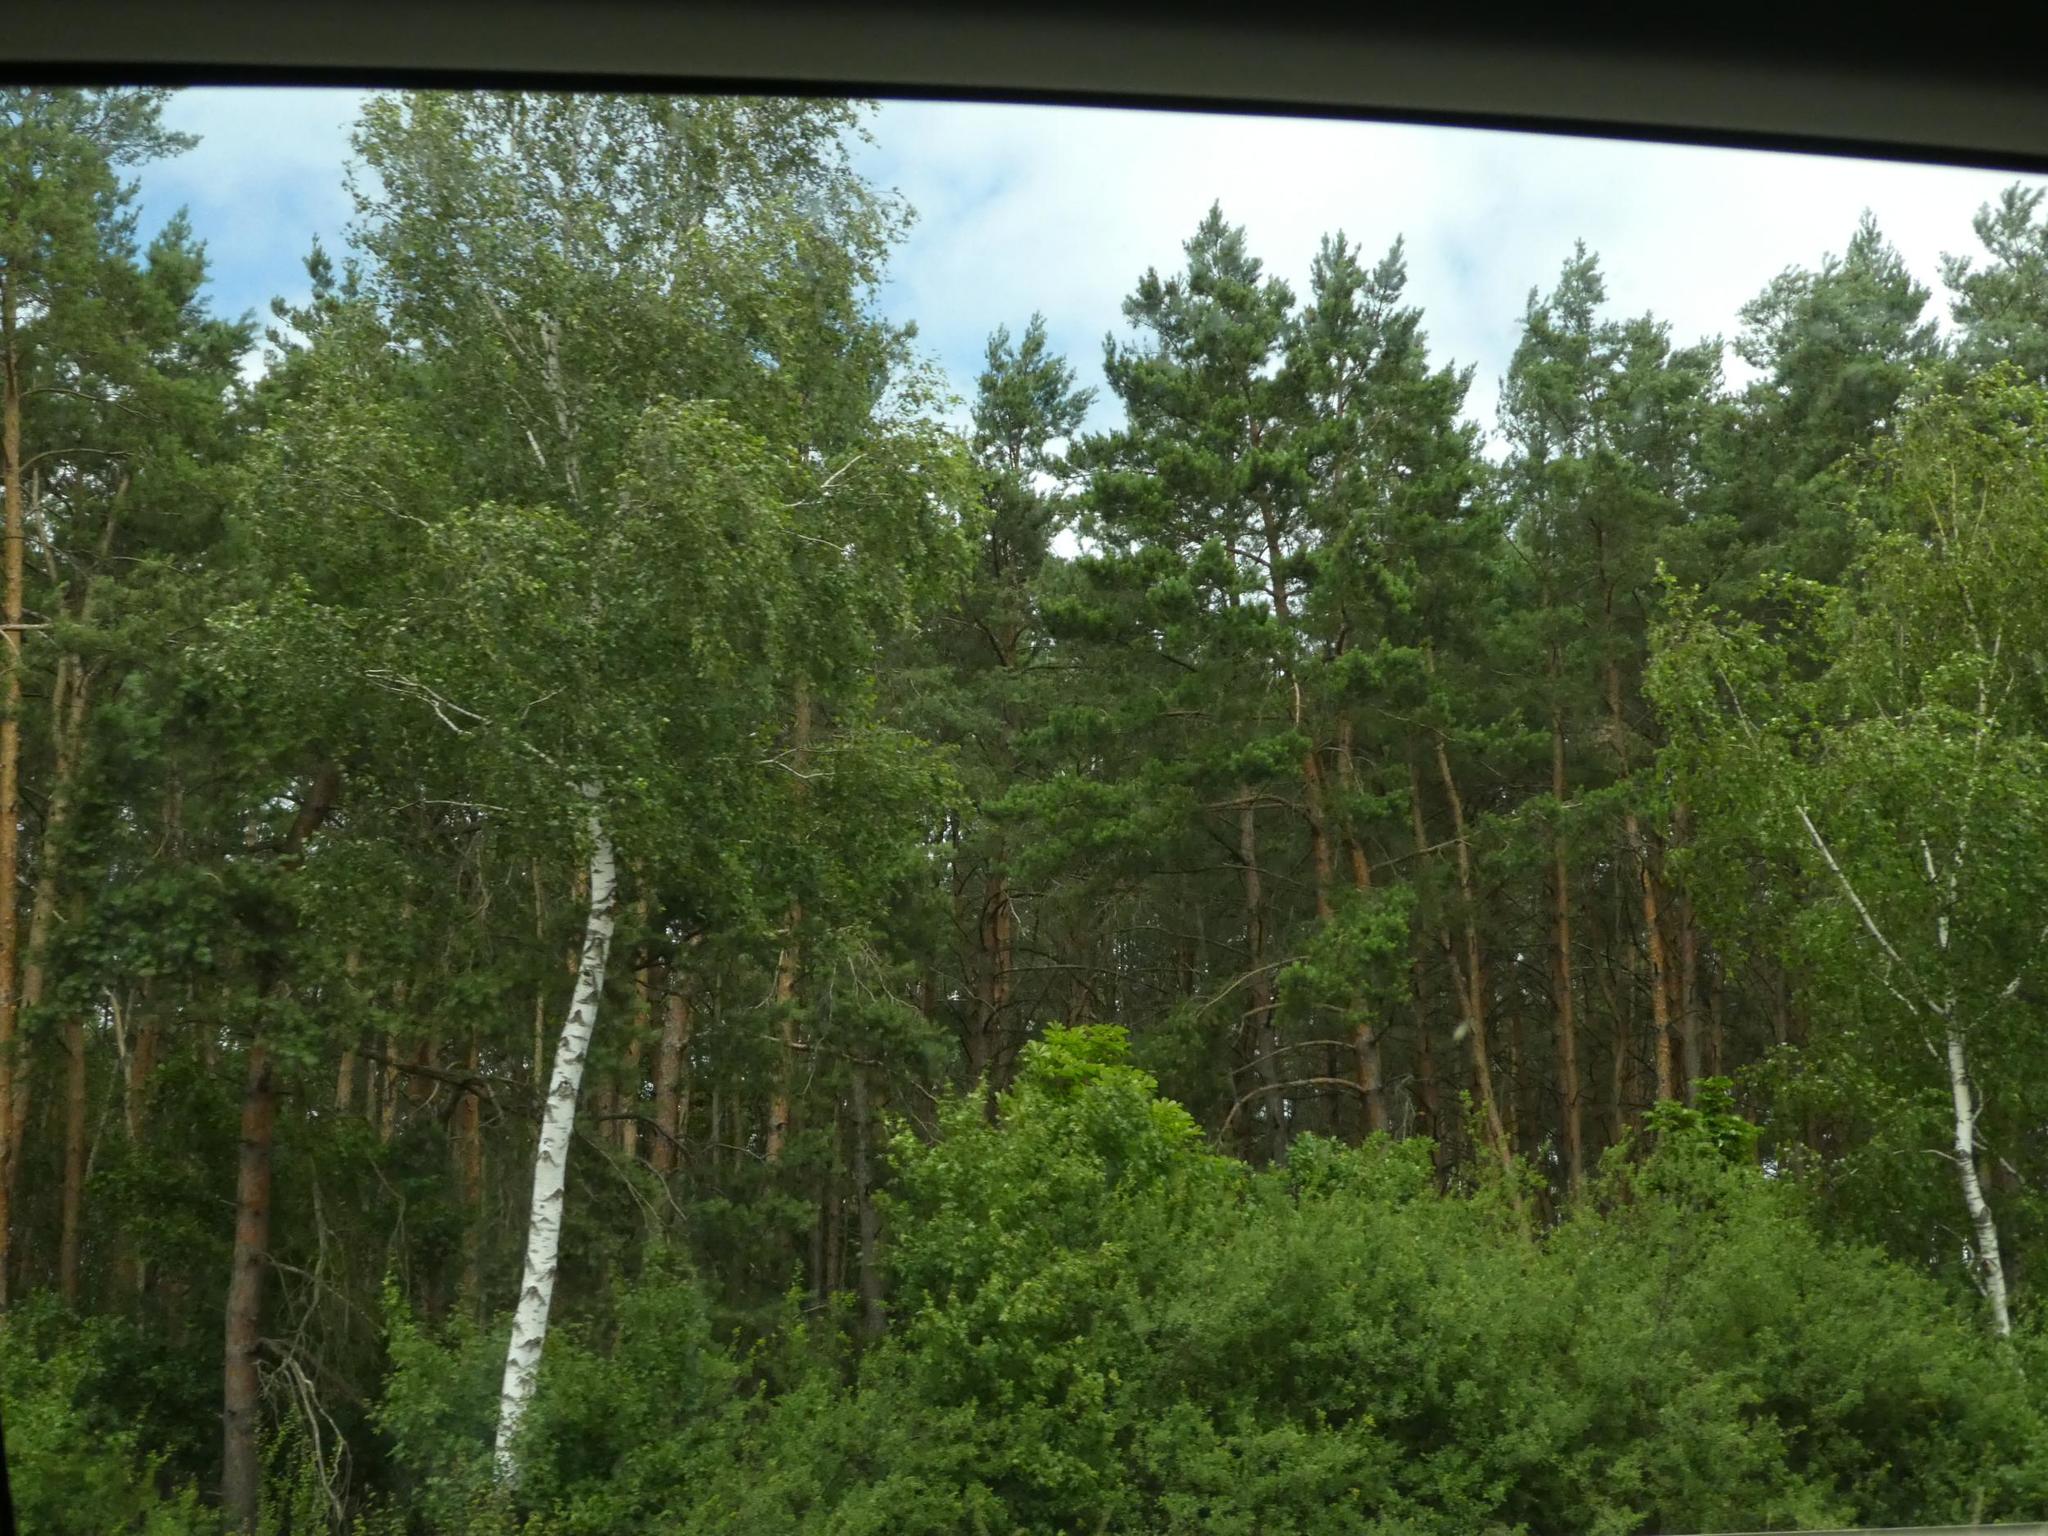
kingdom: Plantae
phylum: Tracheophyta
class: Magnoliopsida
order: Fagales
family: Betulaceae
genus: Betula
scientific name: Betula pendula
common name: Silver birch
